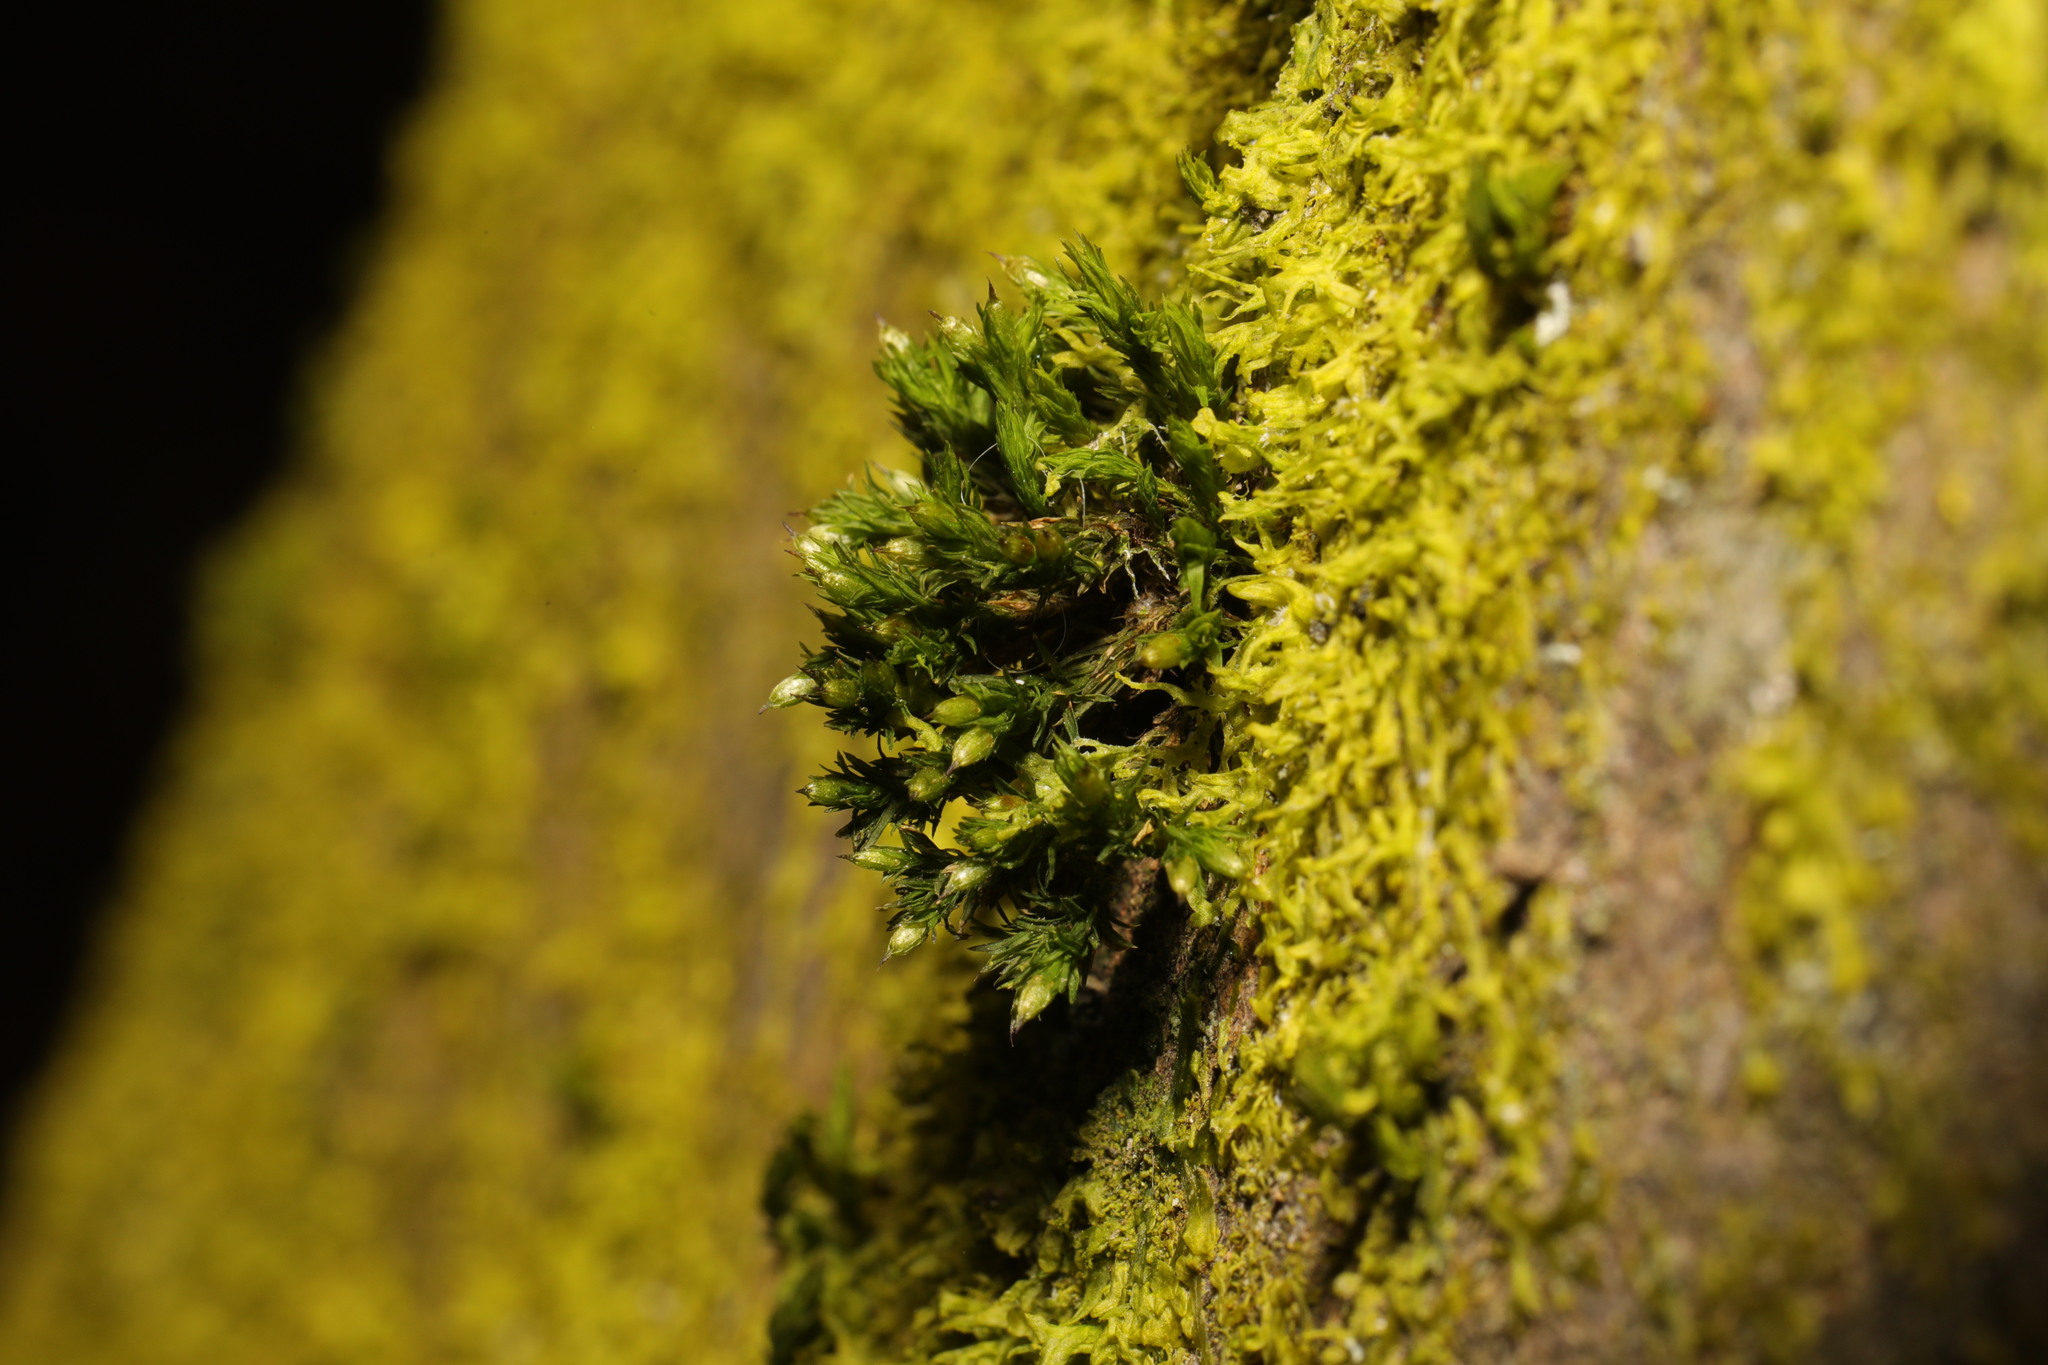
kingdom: Plantae
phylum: Bryophyta
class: Bryopsida
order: Orthotrichales
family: Orthotrichaceae
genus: Orthotrichum
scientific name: Orthotrichum stramineum
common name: Straw bristle-moss
